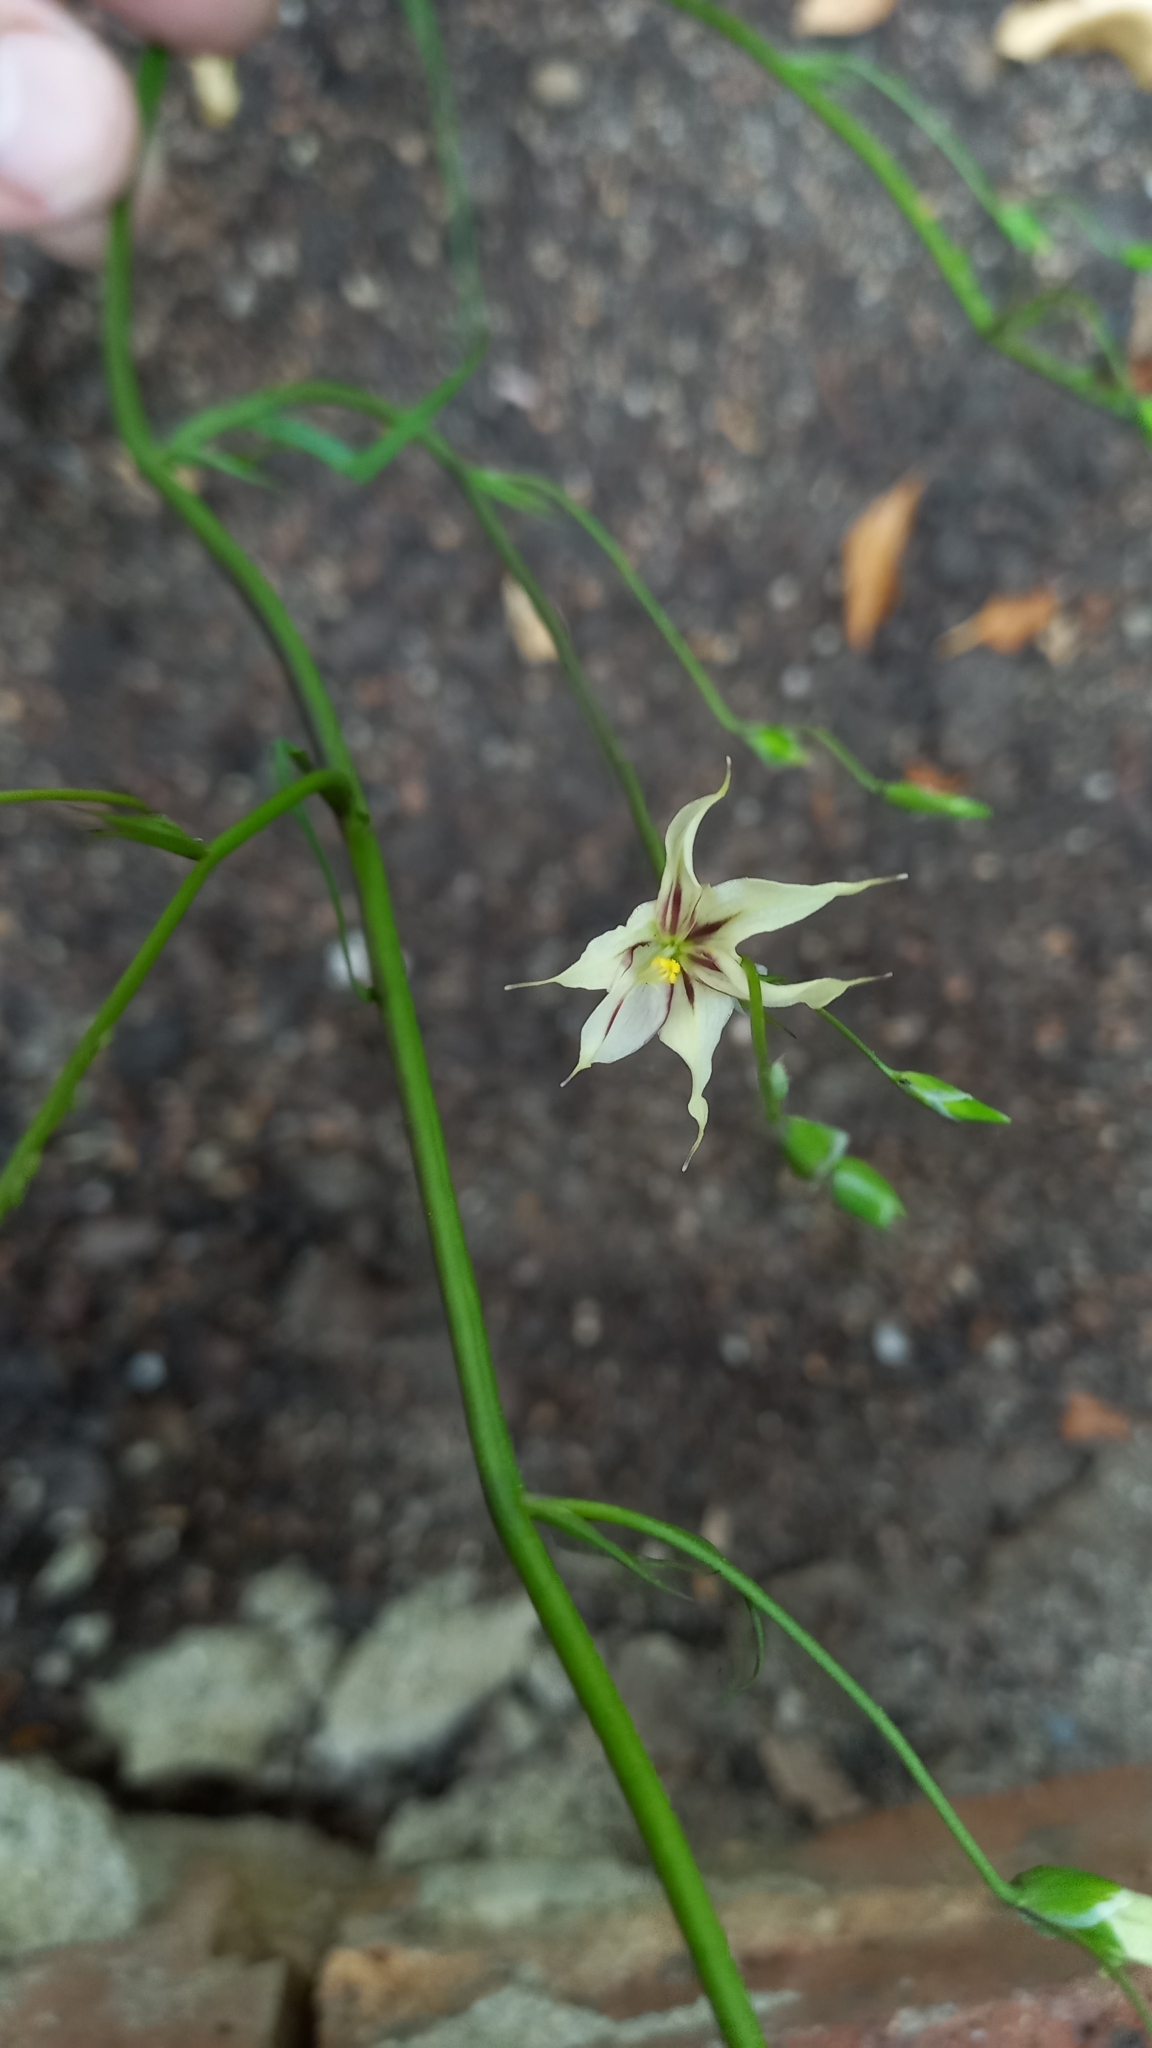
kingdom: Plantae
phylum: Tracheophyta
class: Liliopsida
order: Asparagales
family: Iridaceae
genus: Melasphaerula
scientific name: Melasphaerula graminea
